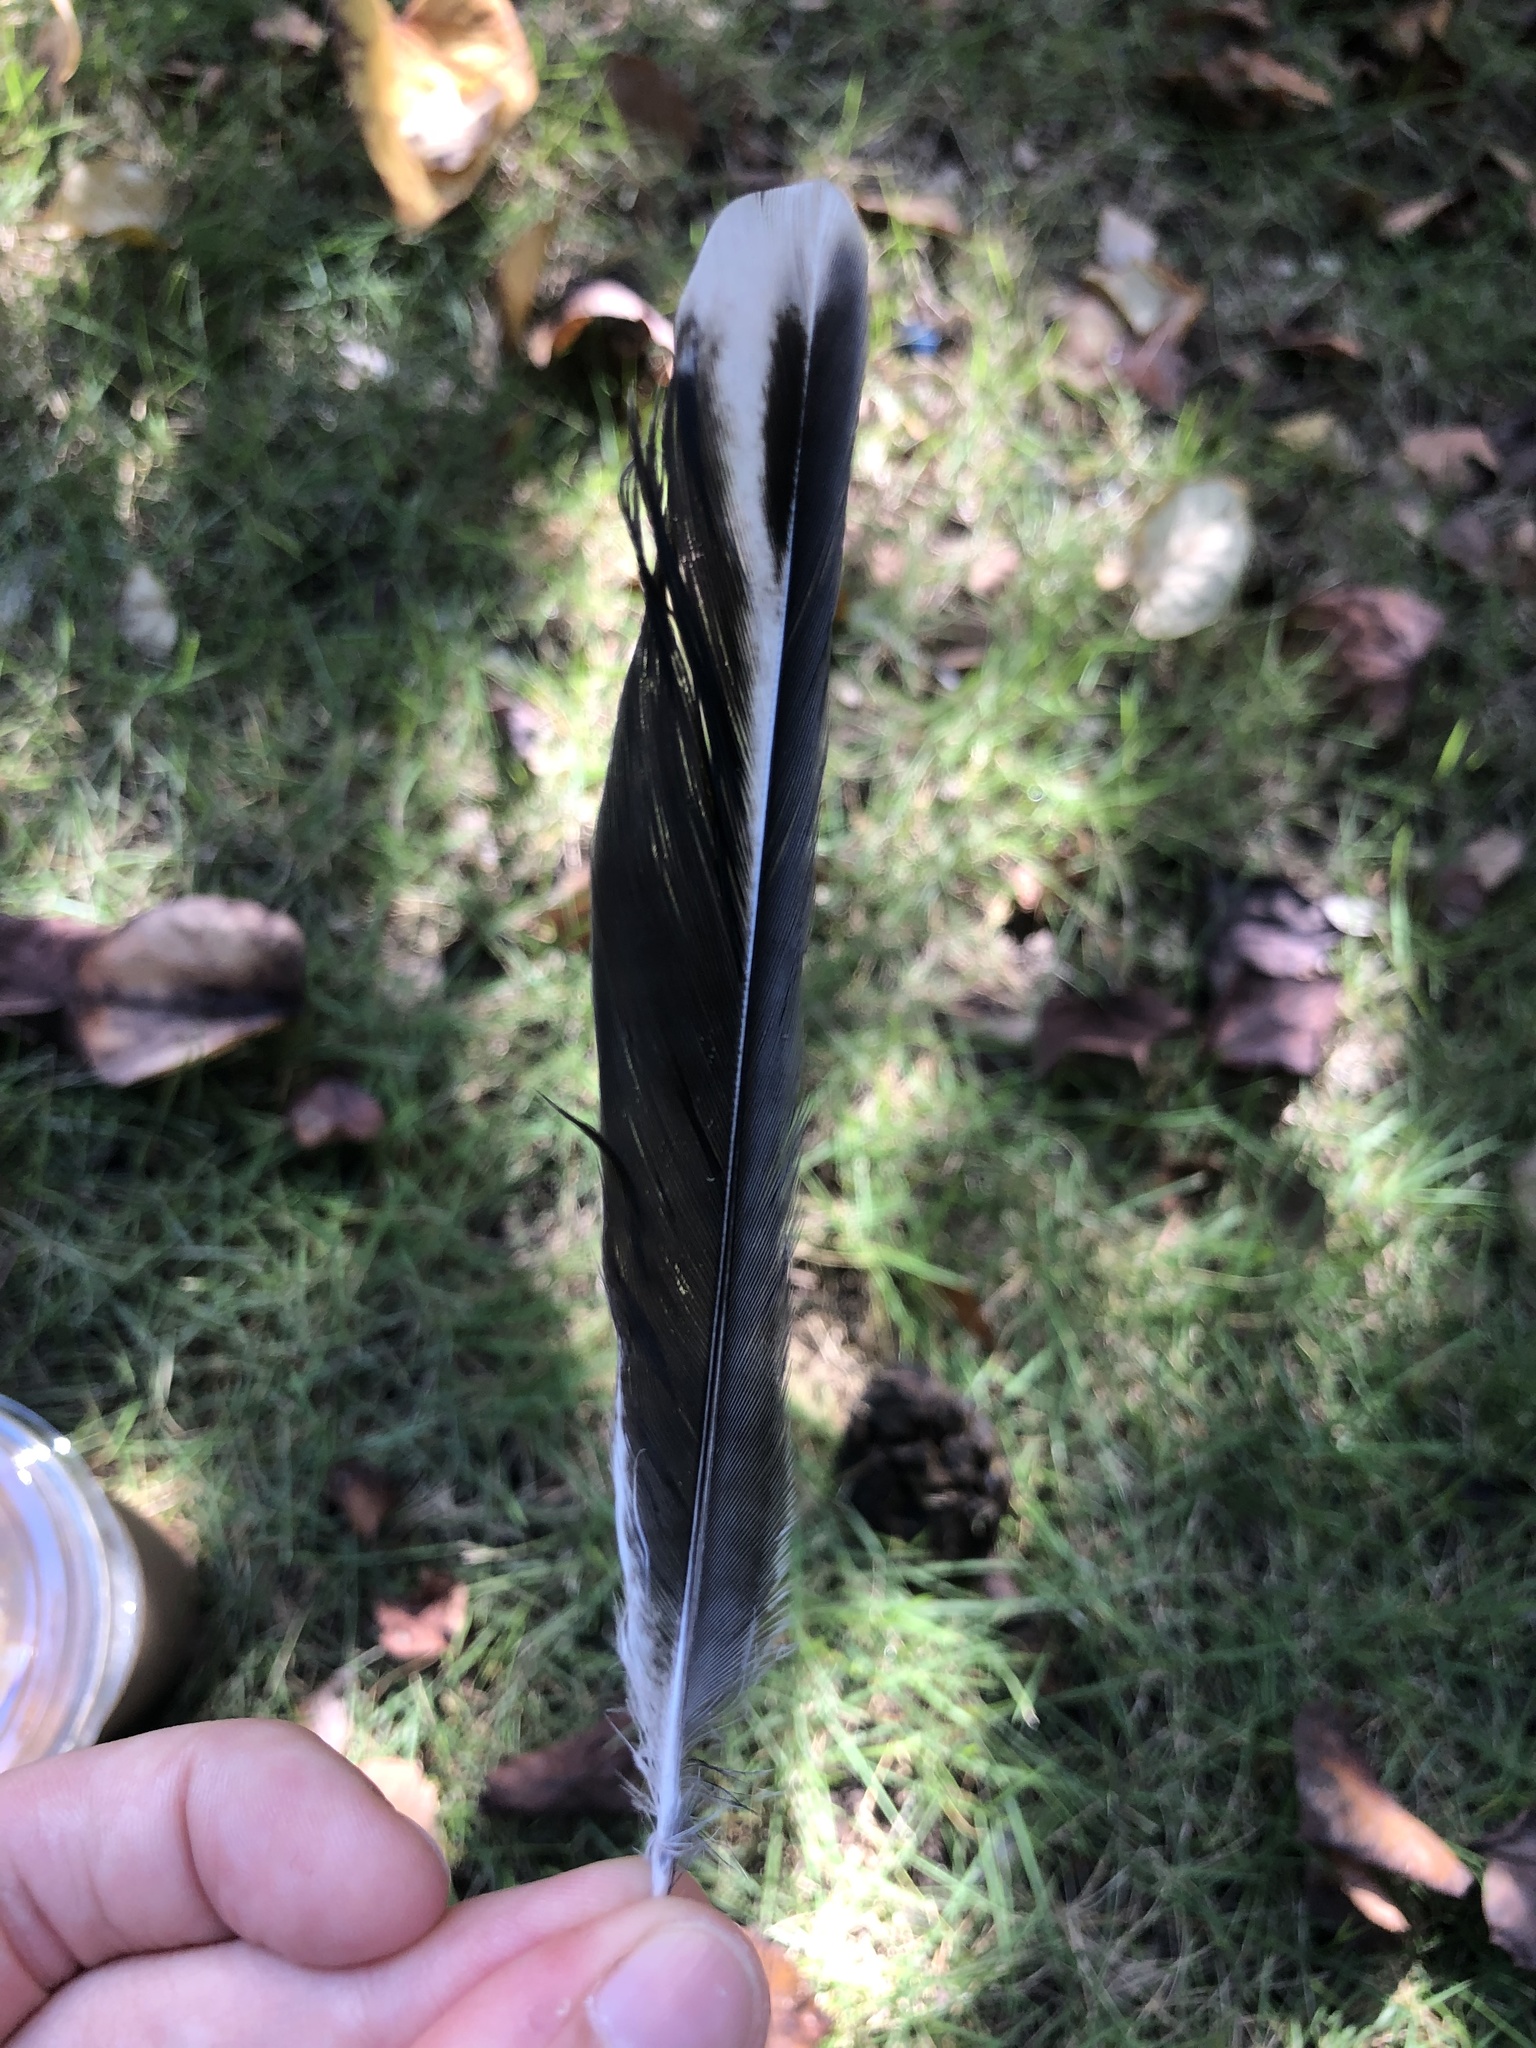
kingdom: Animalia
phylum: Chordata
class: Aves
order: Passeriformes
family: Mimidae
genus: Mimus
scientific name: Mimus polyglottos
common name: Northern mockingbird
